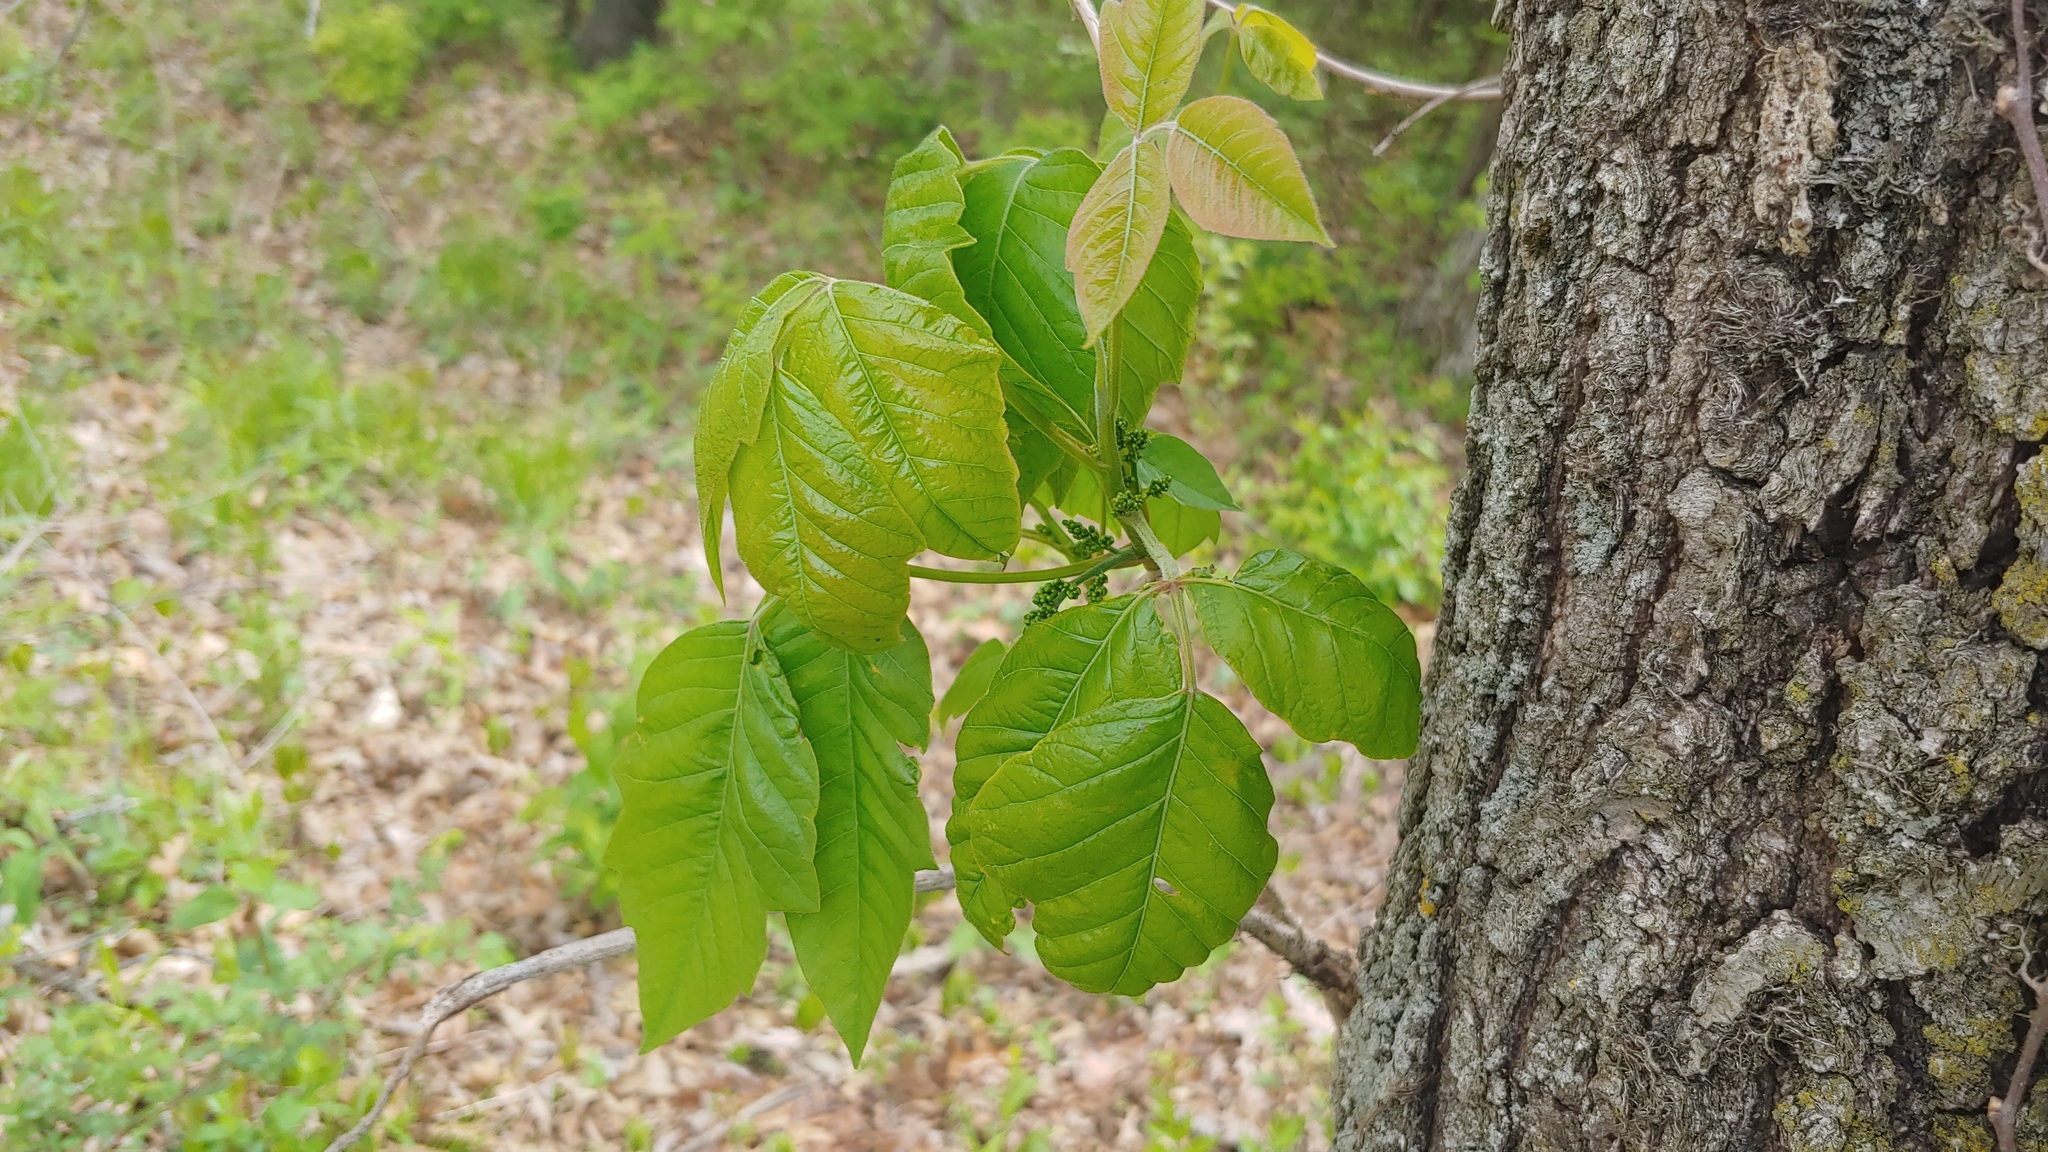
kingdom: Plantae
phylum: Tracheophyta
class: Magnoliopsida
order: Sapindales
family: Anacardiaceae
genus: Toxicodendron
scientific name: Toxicodendron radicans
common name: Poison ivy
